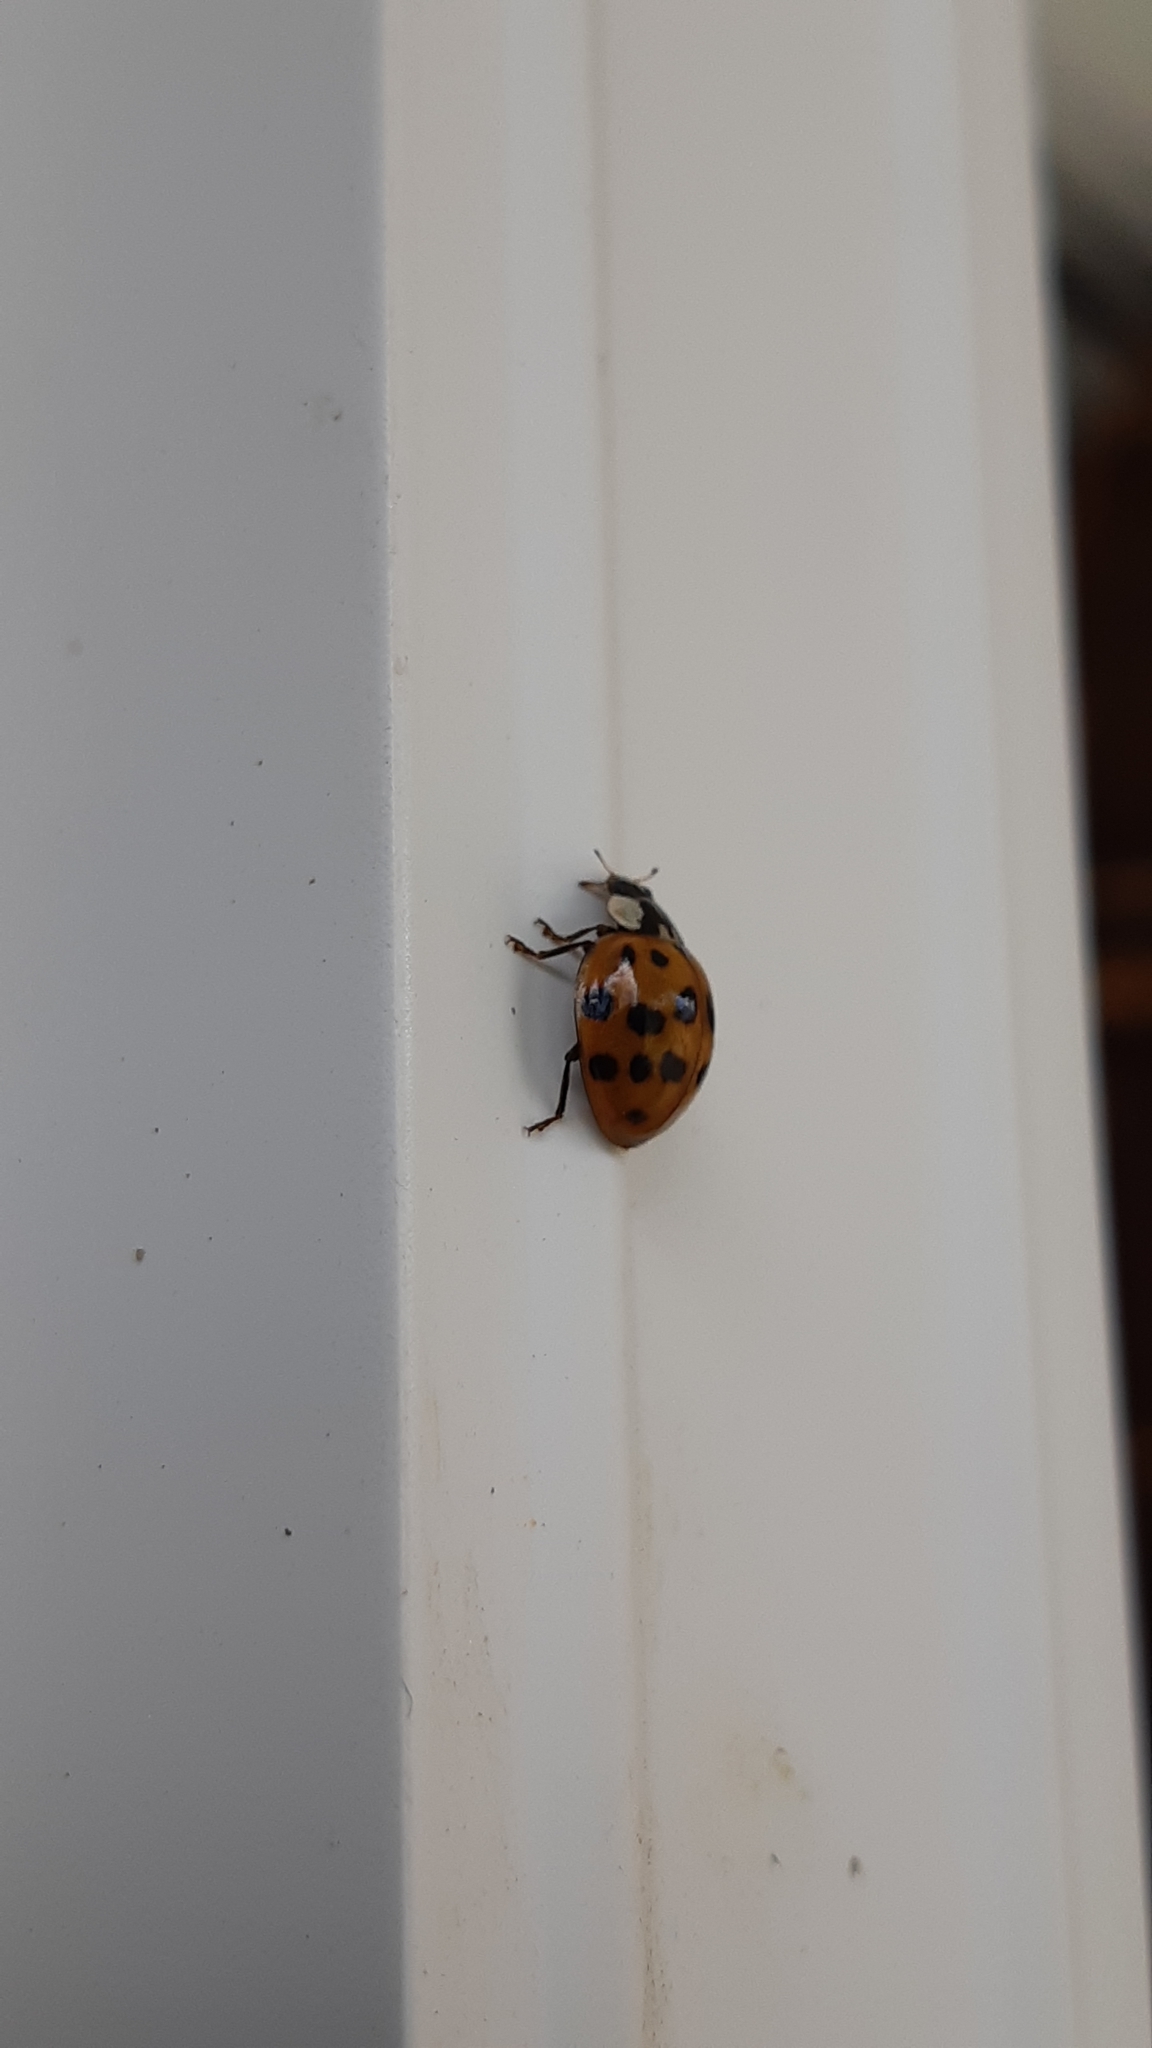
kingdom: Animalia
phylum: Arthropoda
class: Insecta
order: Coleoptera
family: Coccinellidae
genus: Harmonia
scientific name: Harmonia axyridis
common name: Harlequin ladybird
